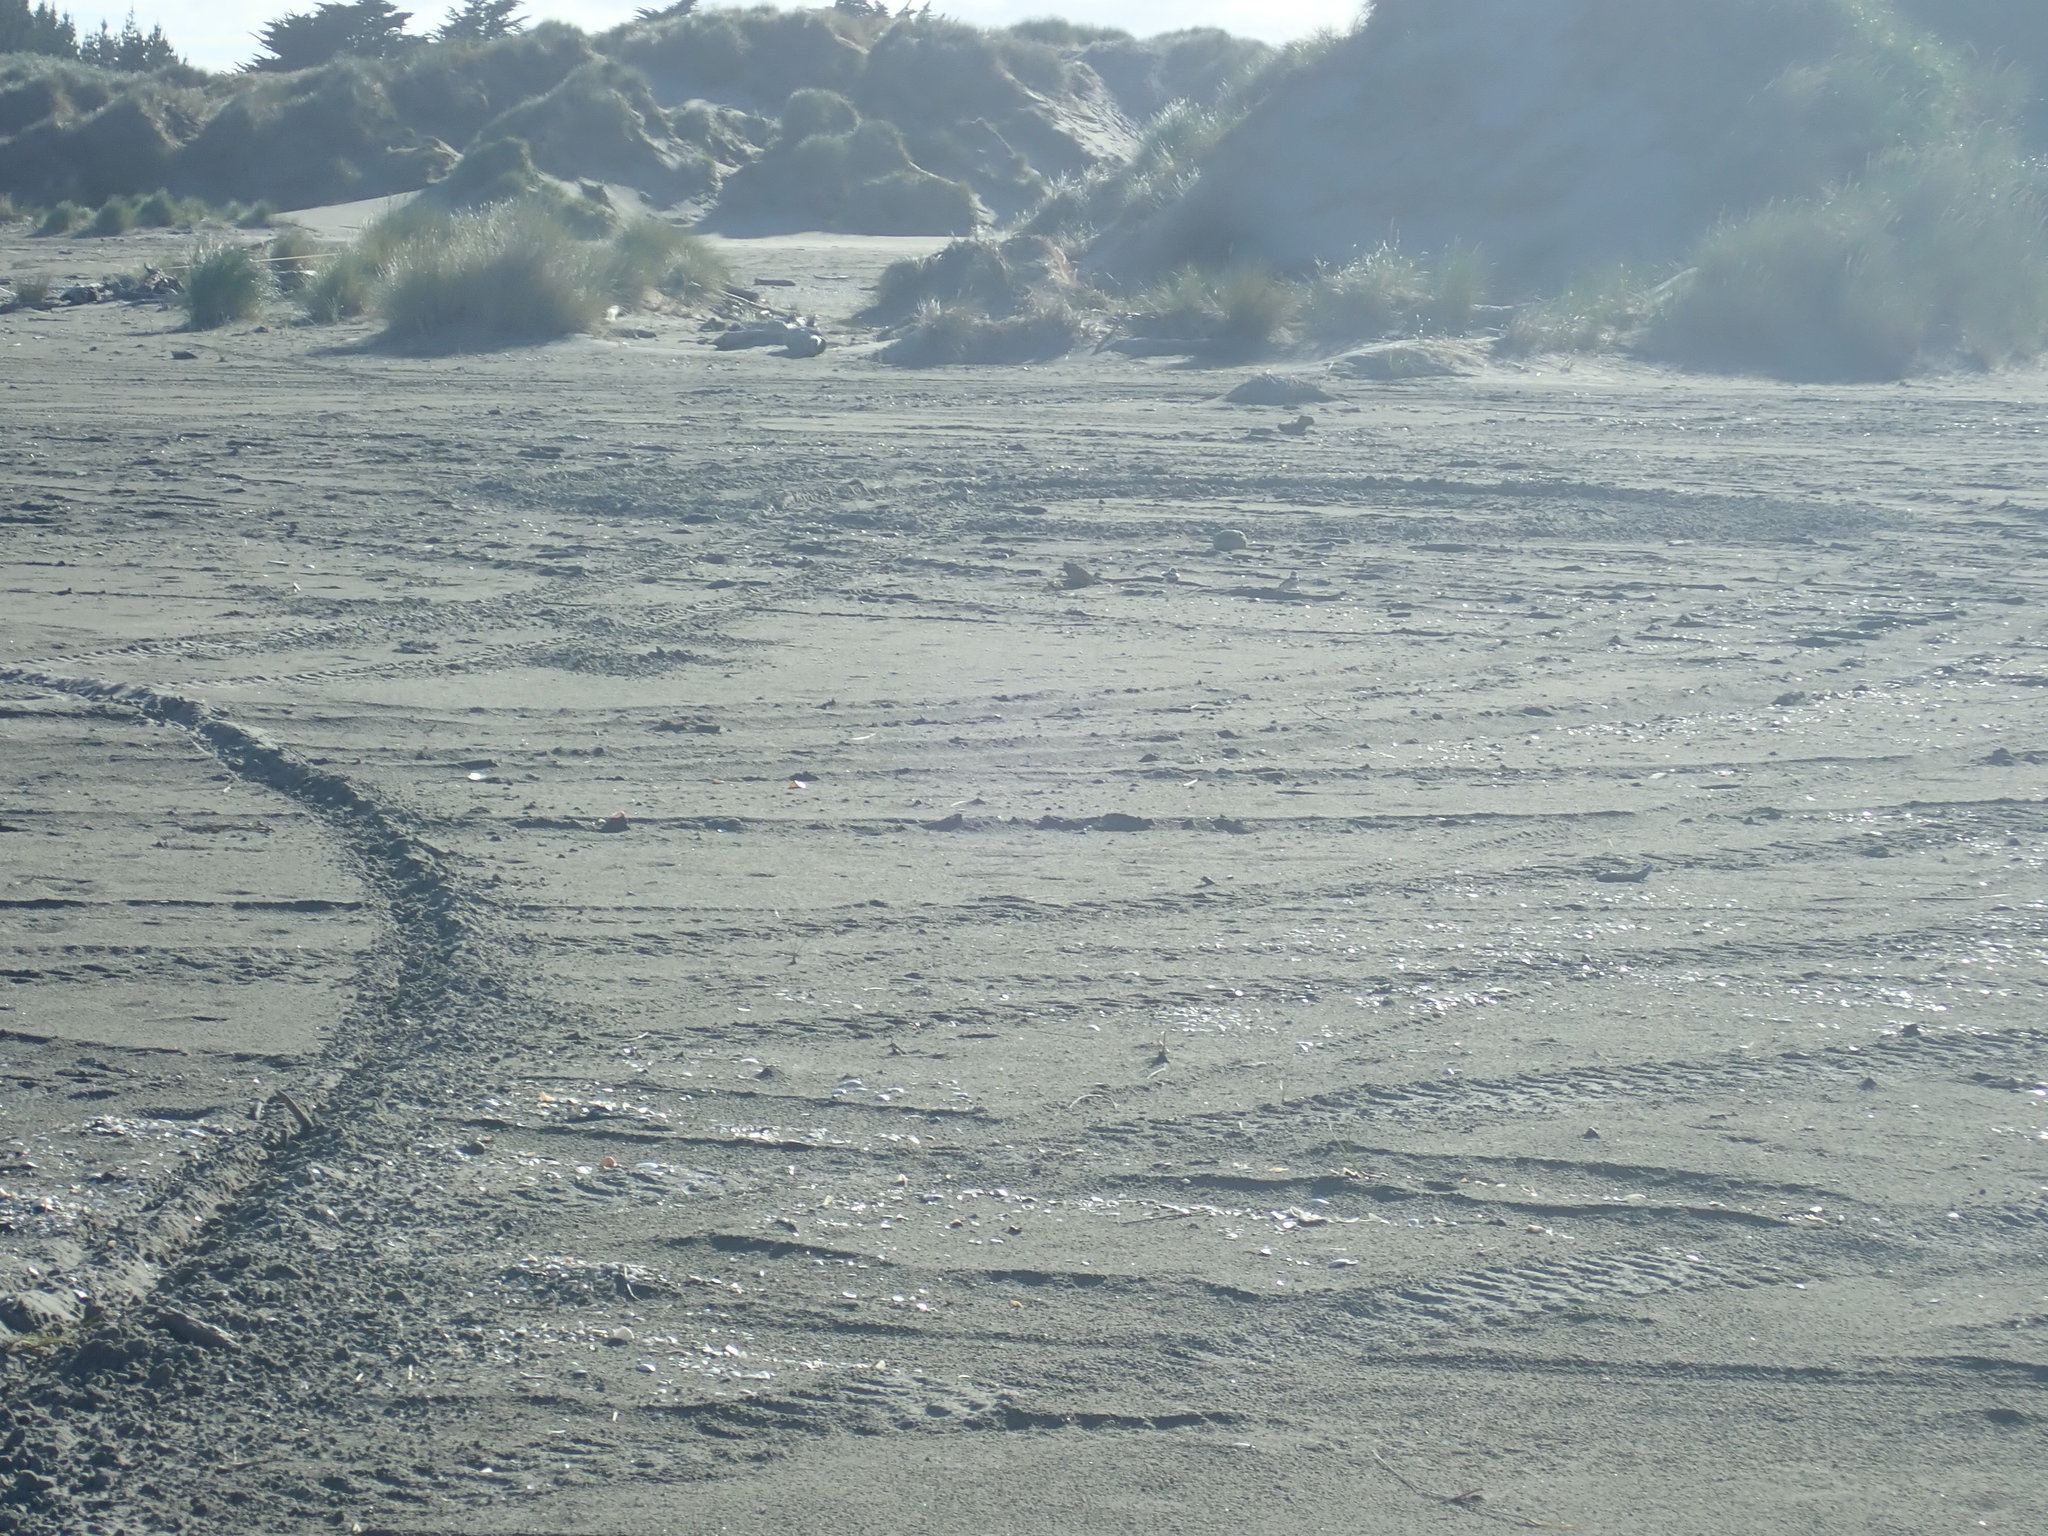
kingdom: Animalia
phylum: Chordata
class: Aves
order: Charadriiformes
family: Charadriidae
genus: Anarhynchus
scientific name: Anarhynchus
